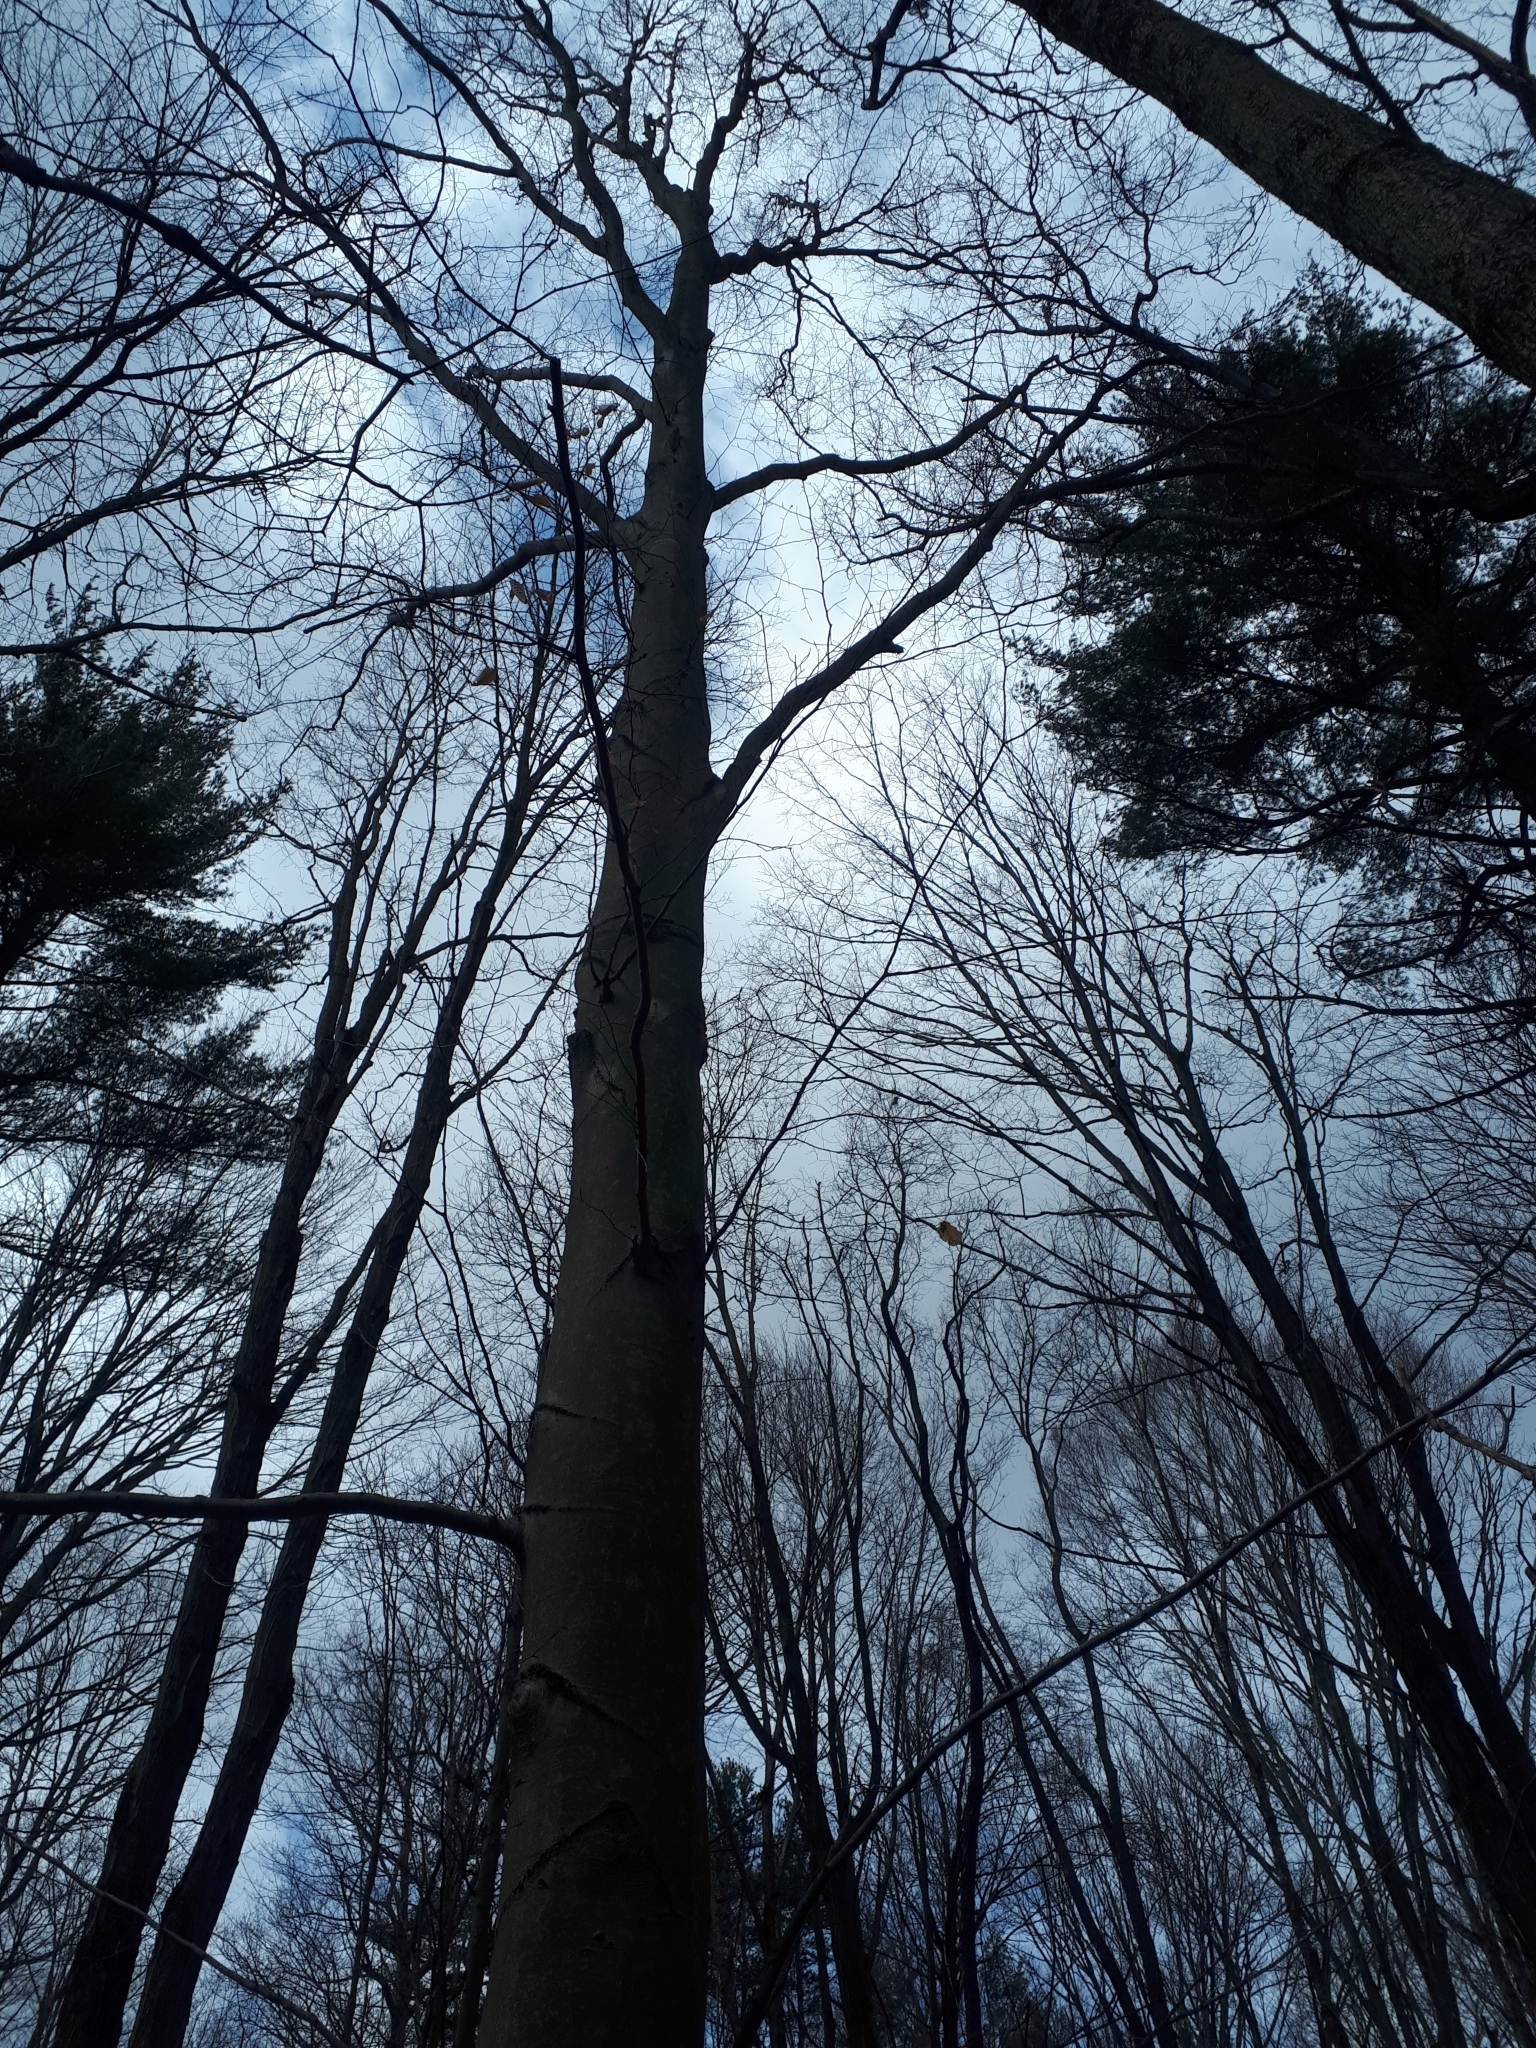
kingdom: Plantae
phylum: Tracheophyta
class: Magnoliopsida
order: Fagales
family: Fagaceae
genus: Fagus
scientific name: Fagus grandifolia
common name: American beech
